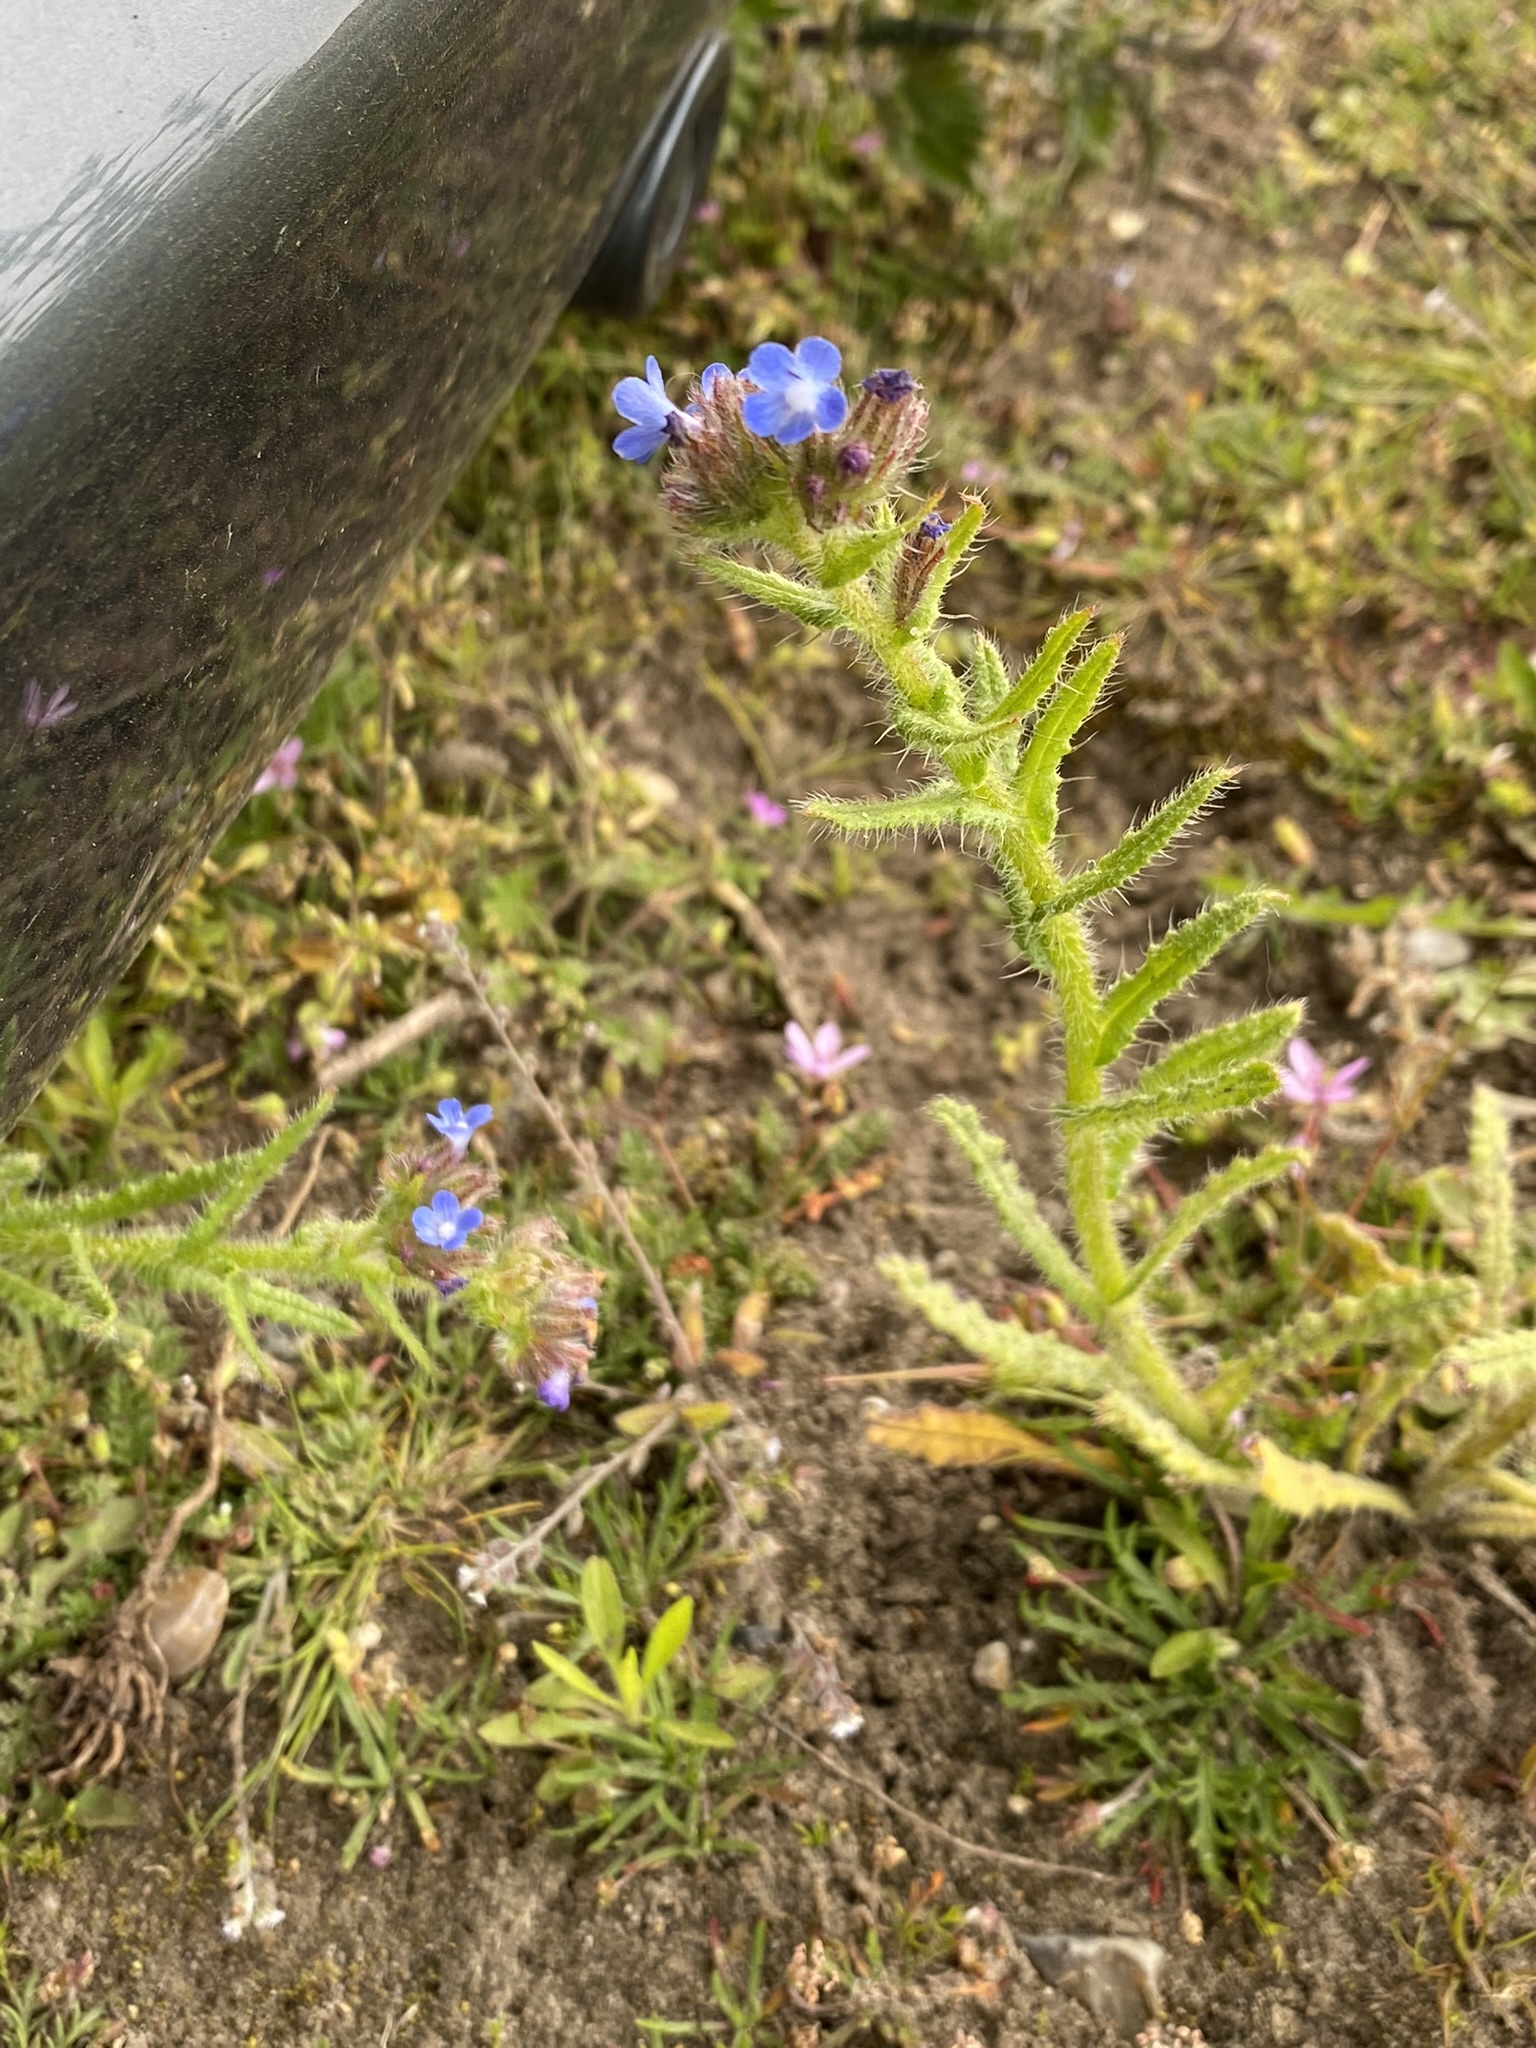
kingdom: Plantae
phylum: Tracheophyta
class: Magnoliopsida
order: Boraginales
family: Boraginaceae
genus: Lycopsis
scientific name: Lycopsis arvensis
